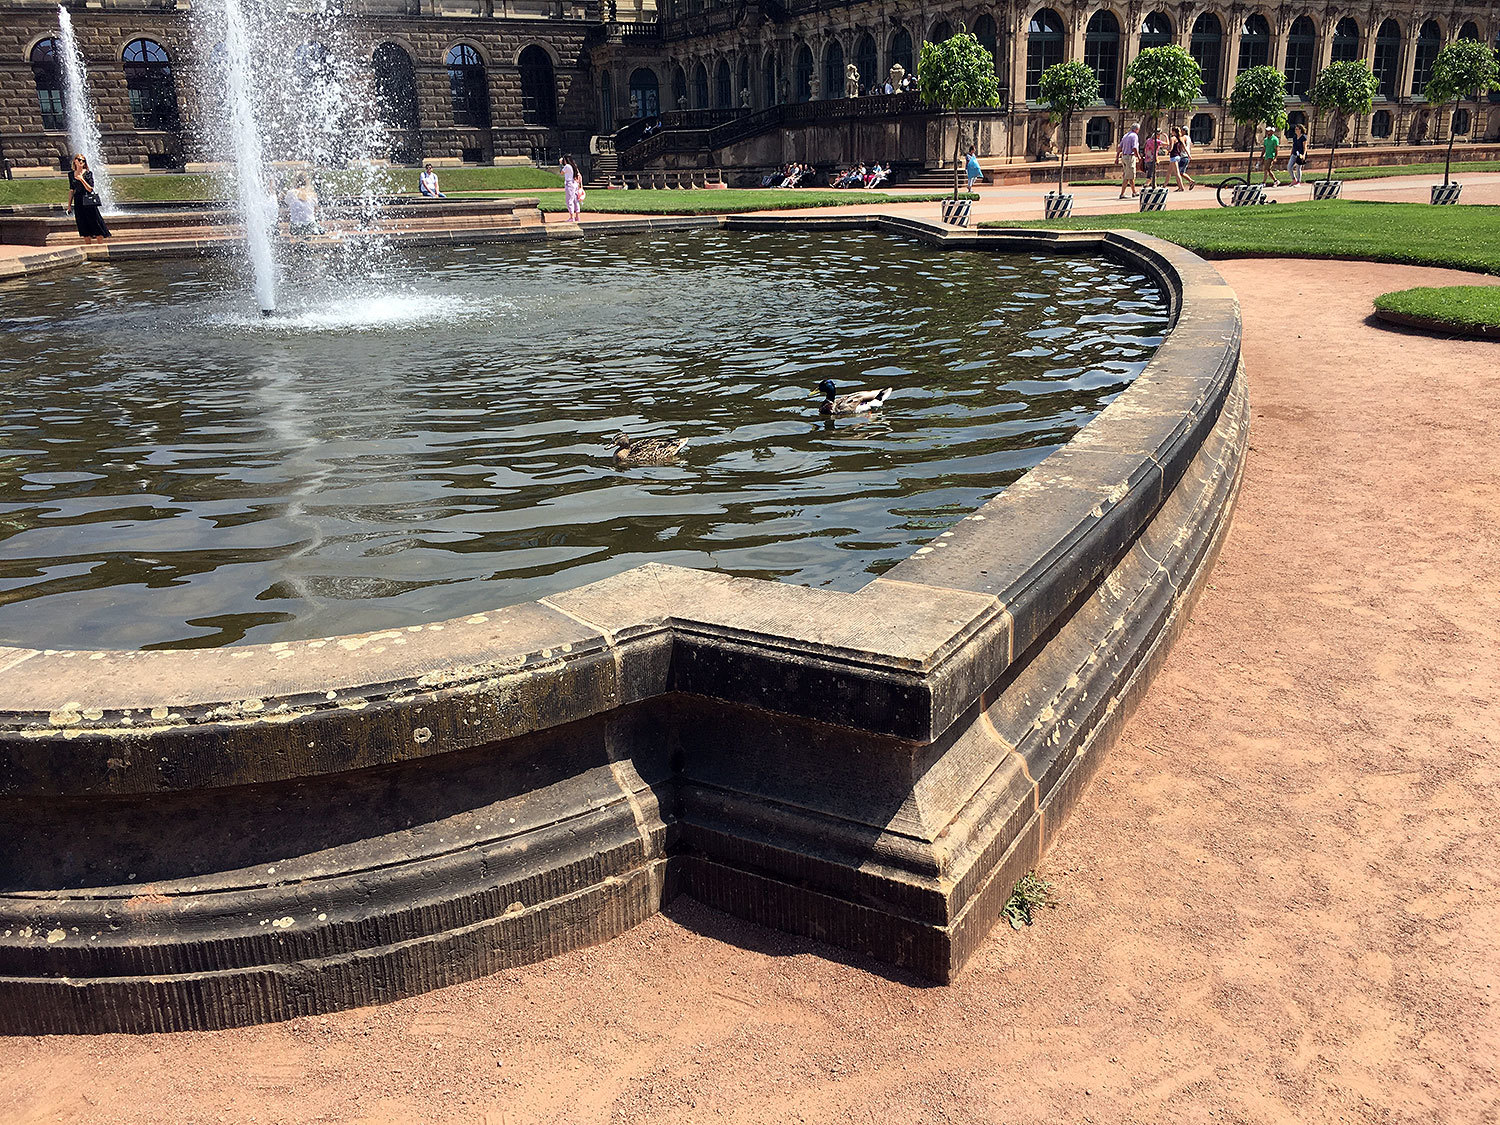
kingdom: Animalia
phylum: Chordata
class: Aves
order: Anseriformes
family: Anatidae
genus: Anas
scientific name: Anas platyrhynchos
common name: Mallard
